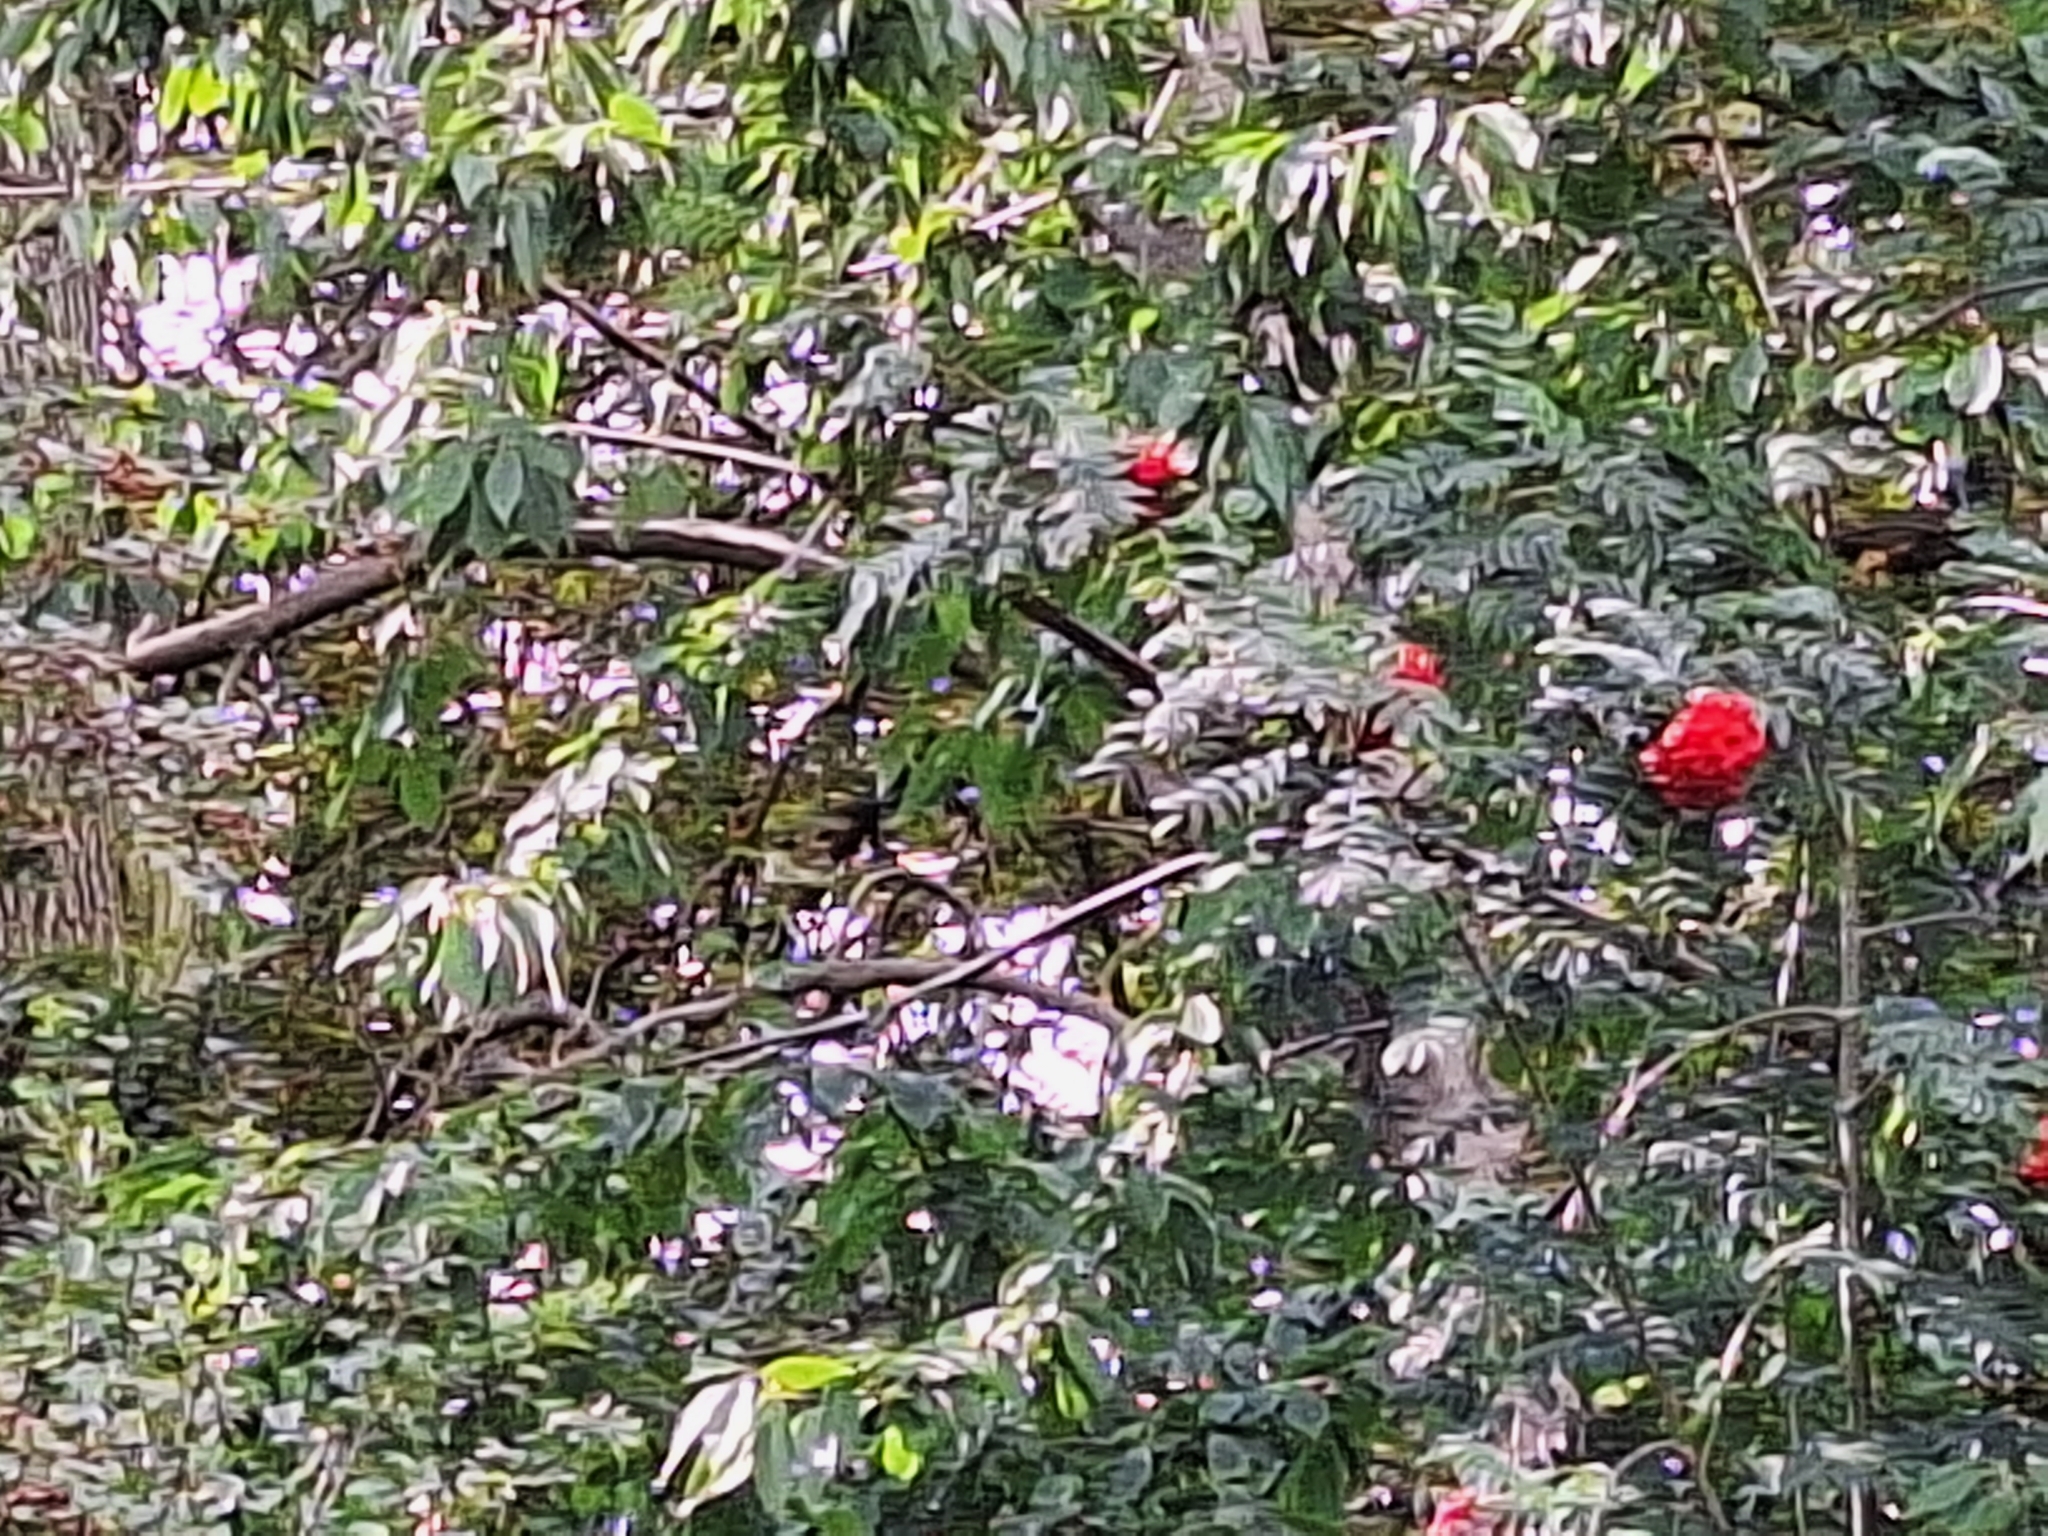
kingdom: Plantae
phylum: Tracheophyta
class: Magnoliopsida
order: Rosales
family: Rosaceae
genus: Sorbus
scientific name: Sorbus aucuparia
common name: Rowan
